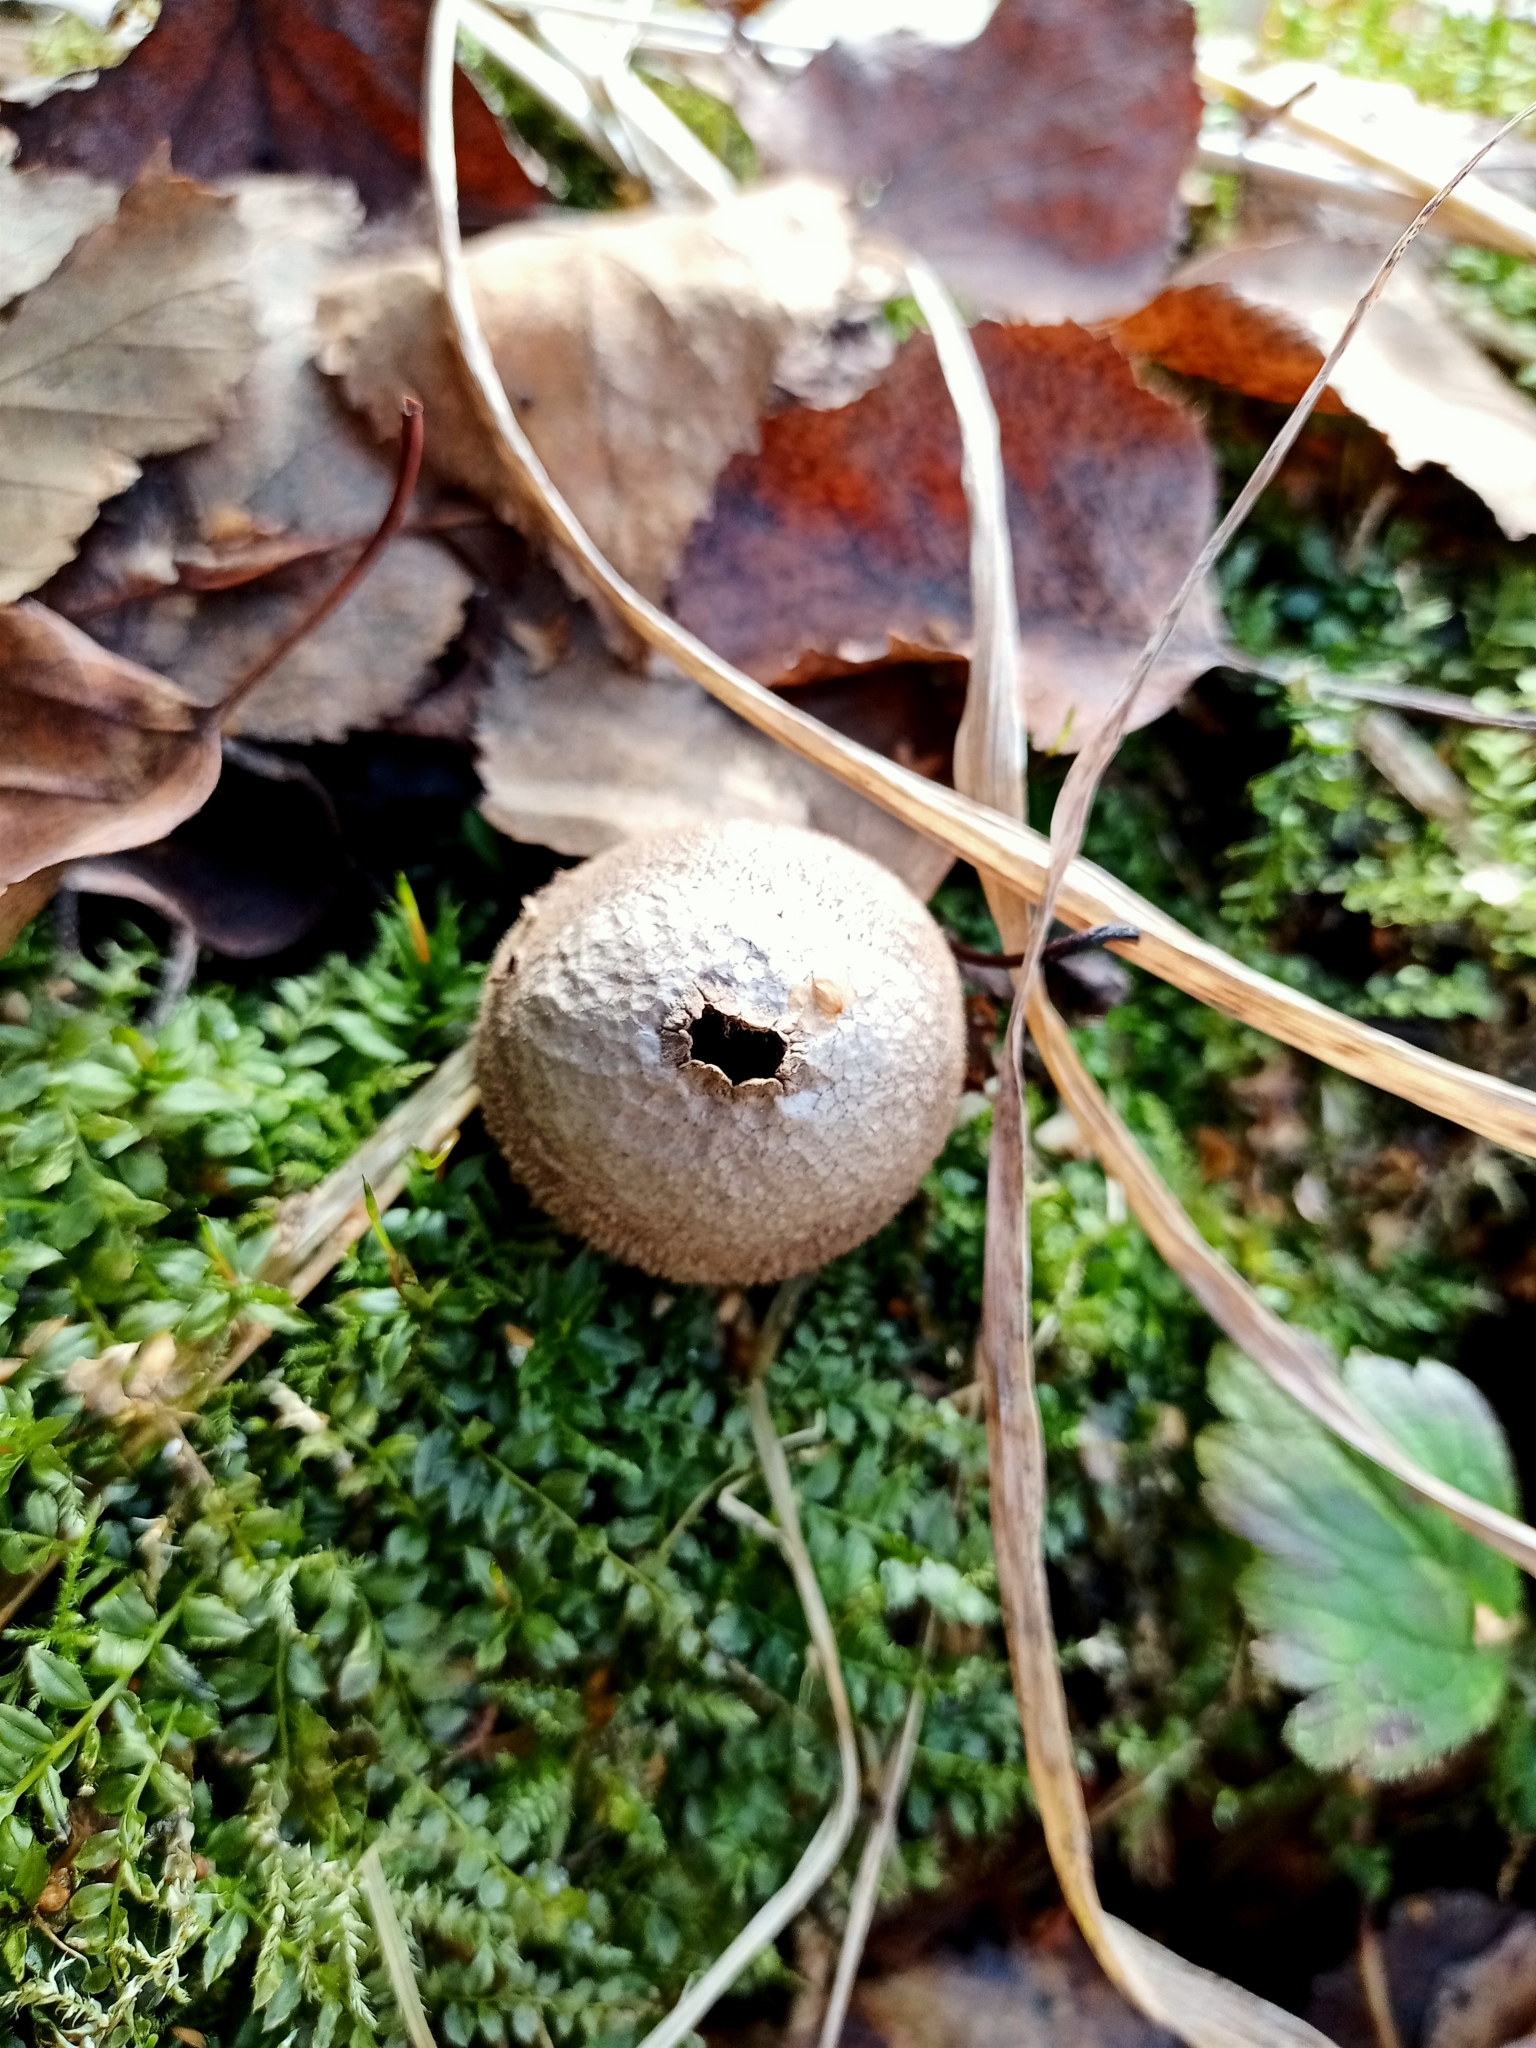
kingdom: Fungi
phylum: Basidiomycota
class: Agaricomycetes
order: Agaricales
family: Lycoperdaceae
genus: Apioperdon
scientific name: Apioperdon pyriforme
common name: Pear-shaped puffball
